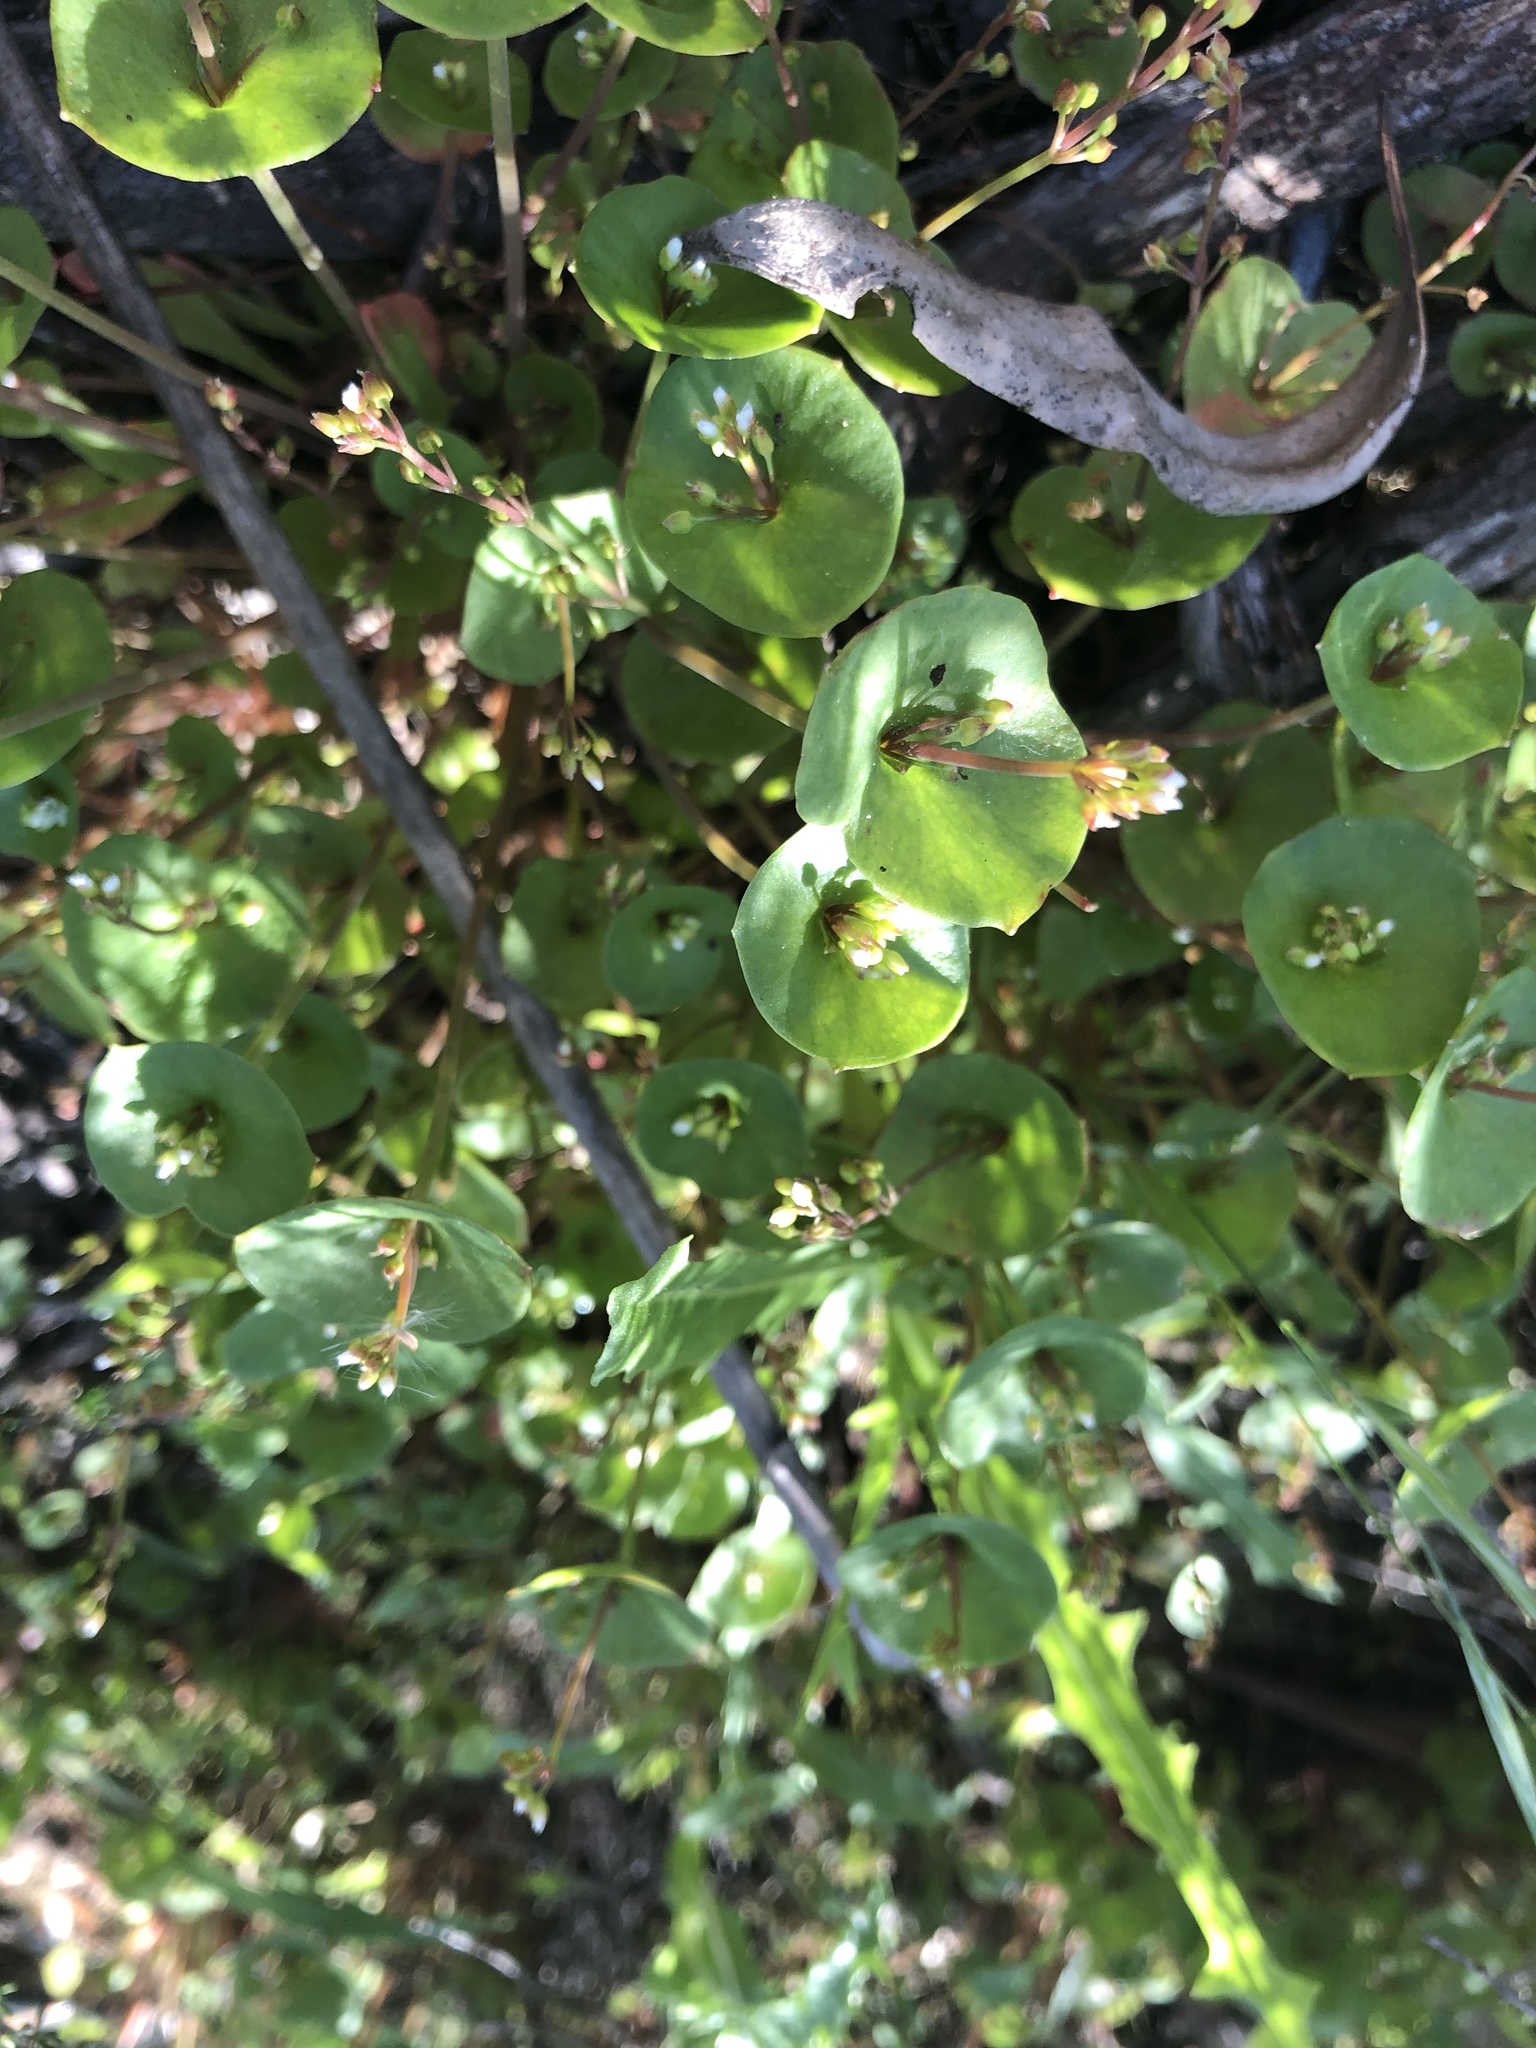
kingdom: Plantae
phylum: Tracheophyta
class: Magnoliopsida
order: Caryophyllales
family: Montiaceae
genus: Claytonia
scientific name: Claytonia perfoliata
